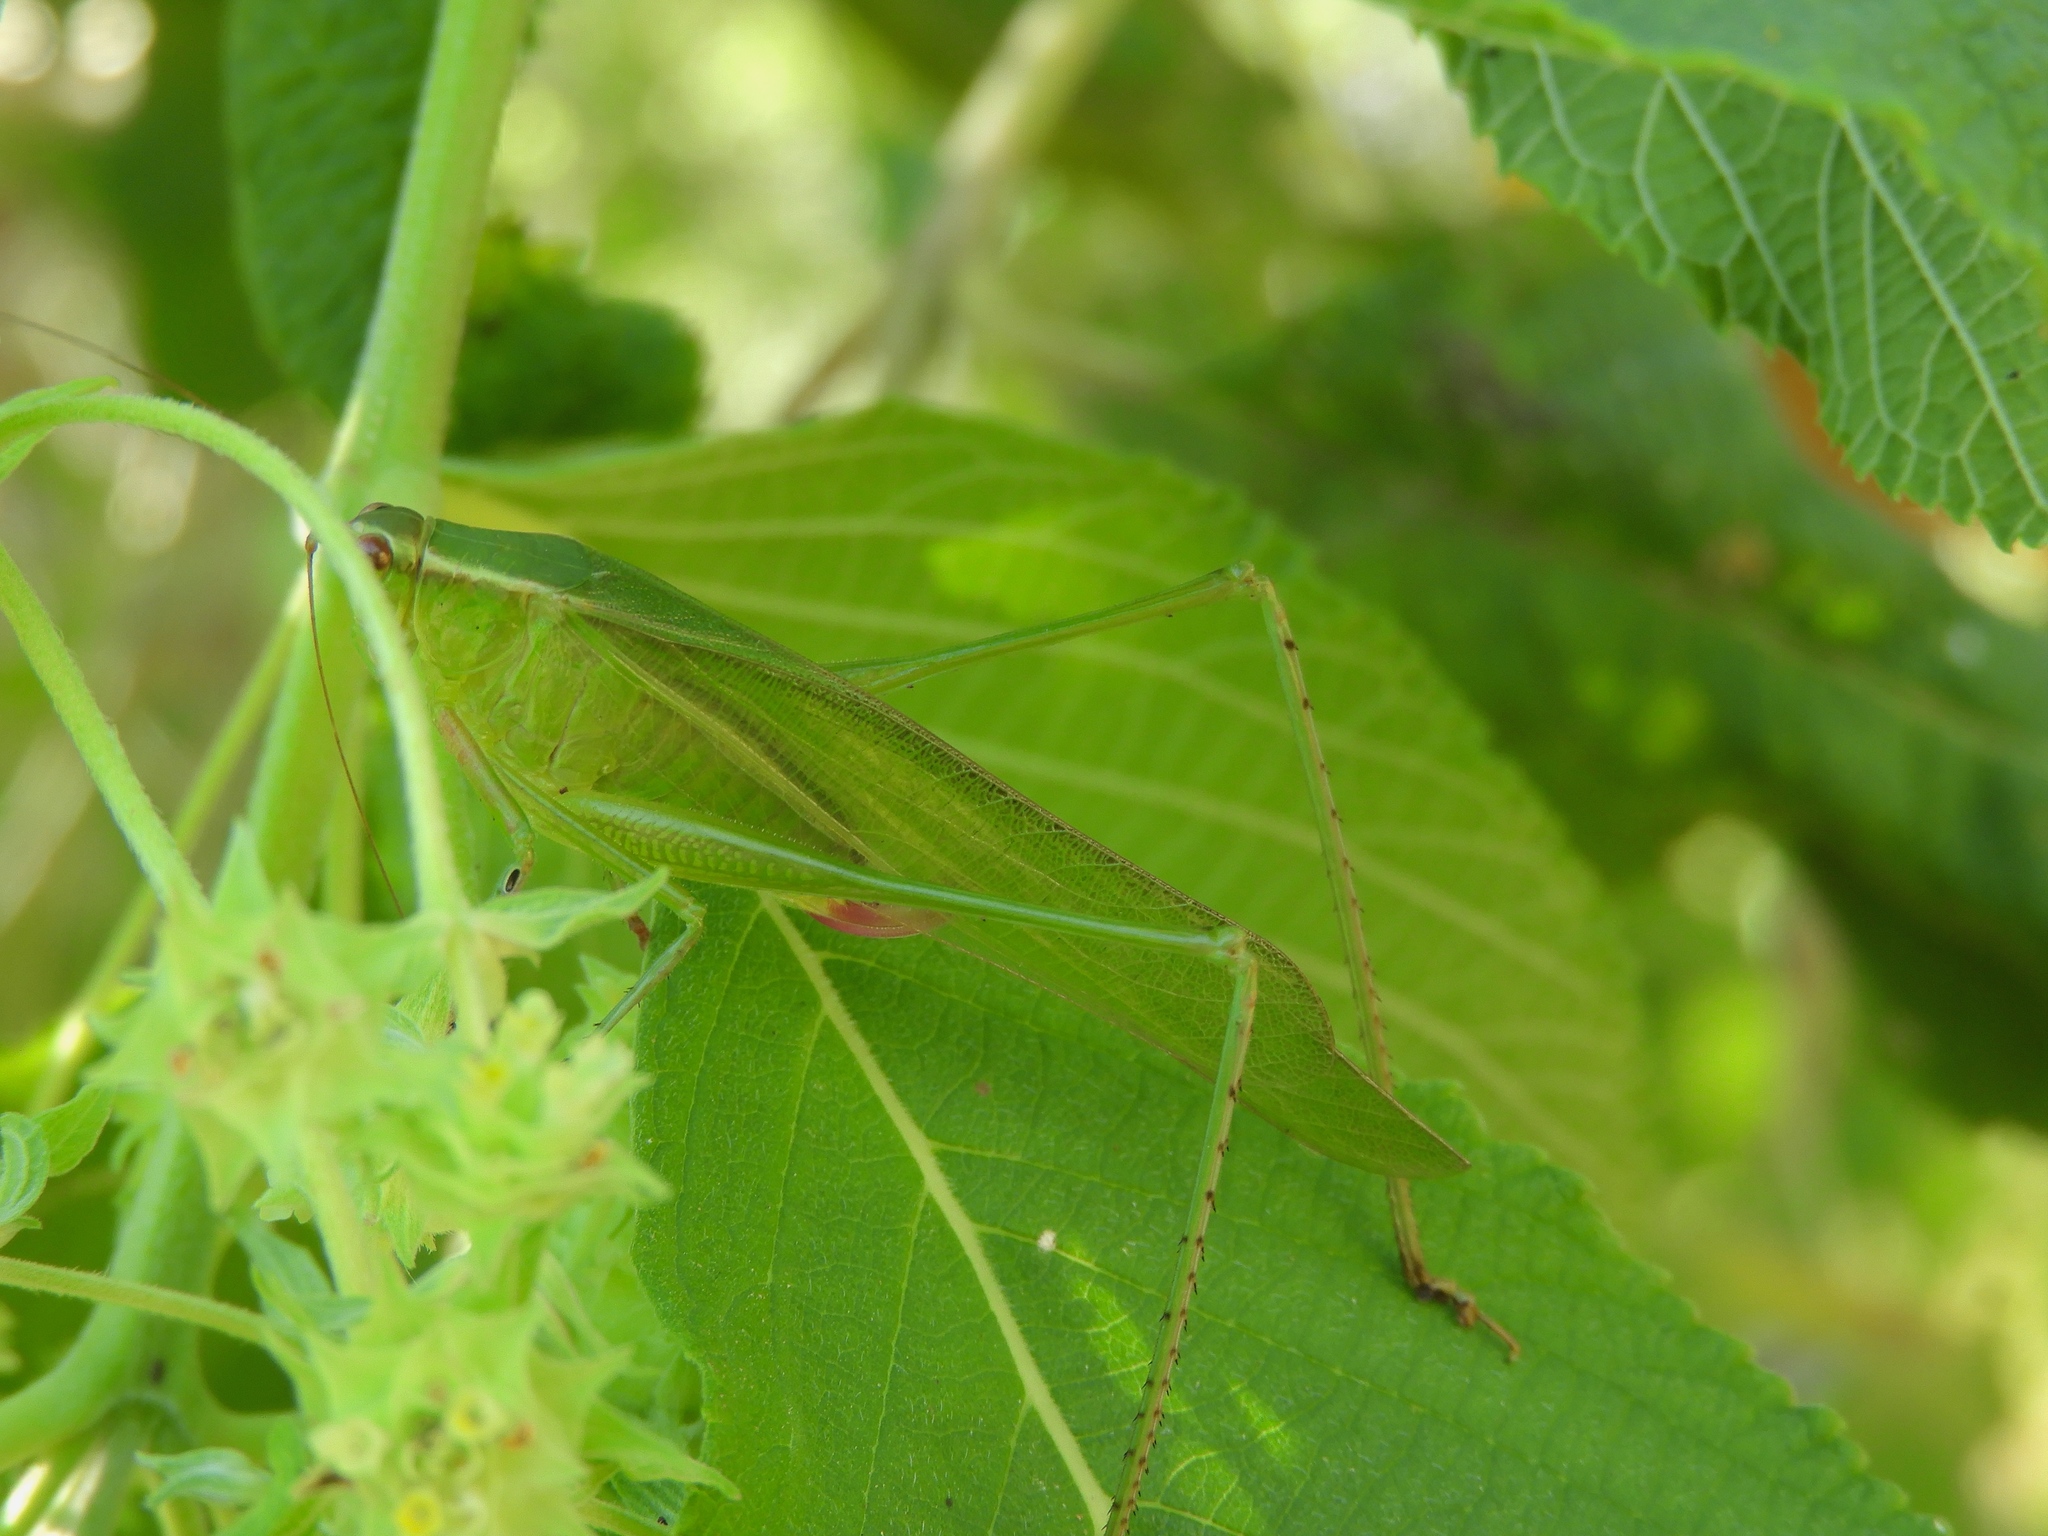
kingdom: Animalia
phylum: Arthropoda
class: Insecta
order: Orthoptera
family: Tettigoniidae
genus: Scudderia
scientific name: Scudderia
